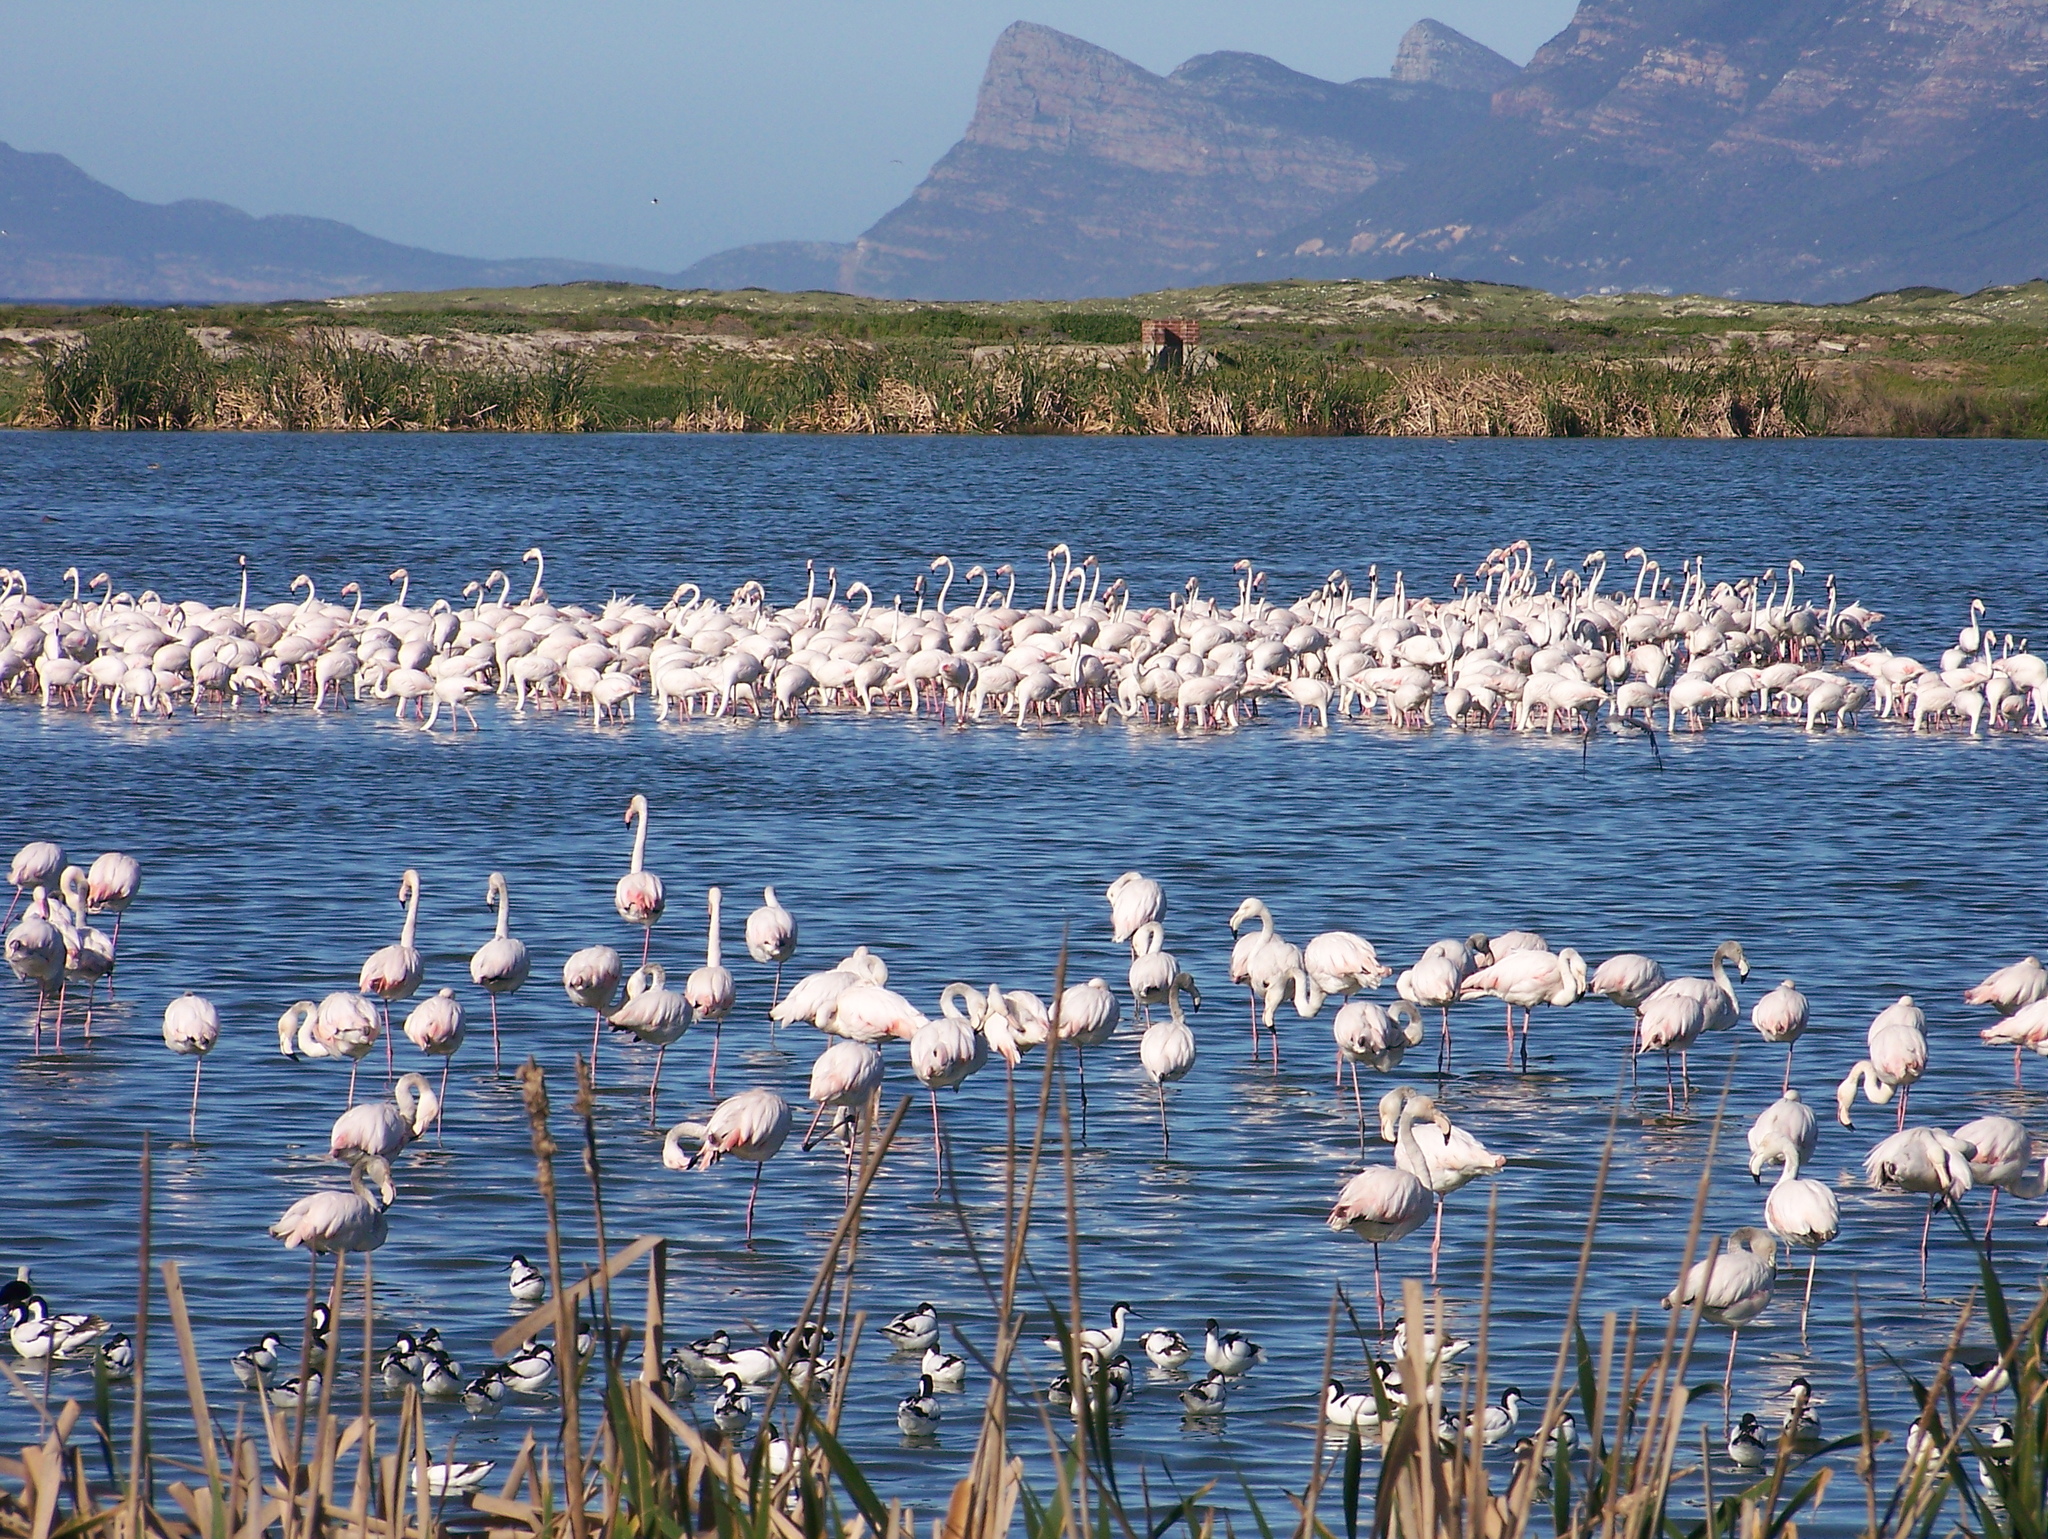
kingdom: Animalia
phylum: Chordata
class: Aves
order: Phoenicopteriformes
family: Phoenicopteridae
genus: Phoenicopterus
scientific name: Phoenicopterus roseus
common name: Greater flamingo
